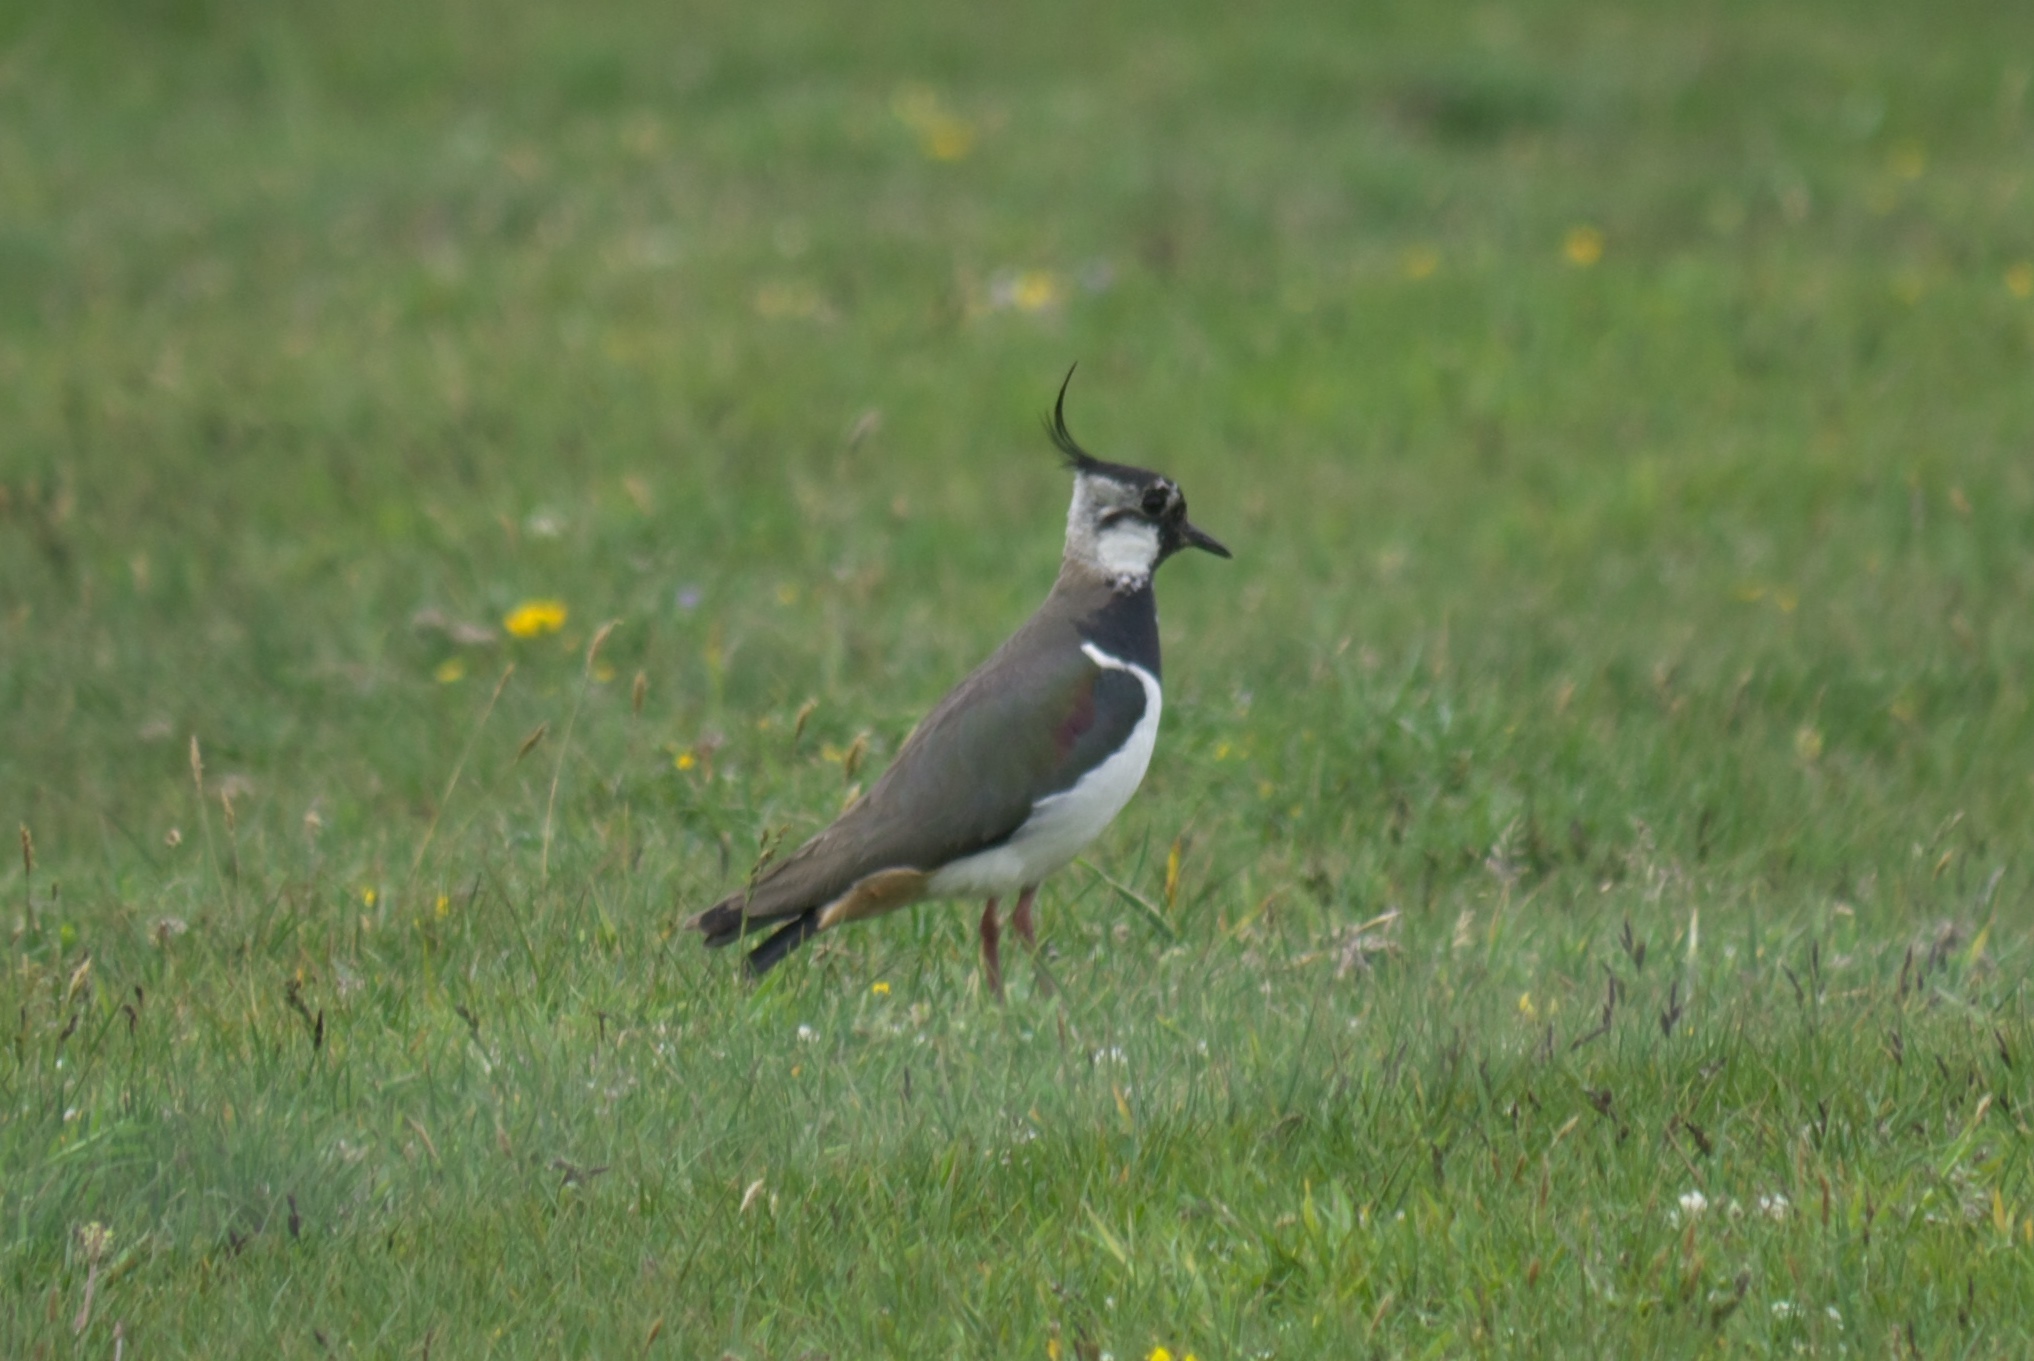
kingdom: Animalia
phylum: Chordata
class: Aves
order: Charadriiformes
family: Charadriidae
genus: Vanellus
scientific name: Vanellus vanellus
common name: Northern lapwing
